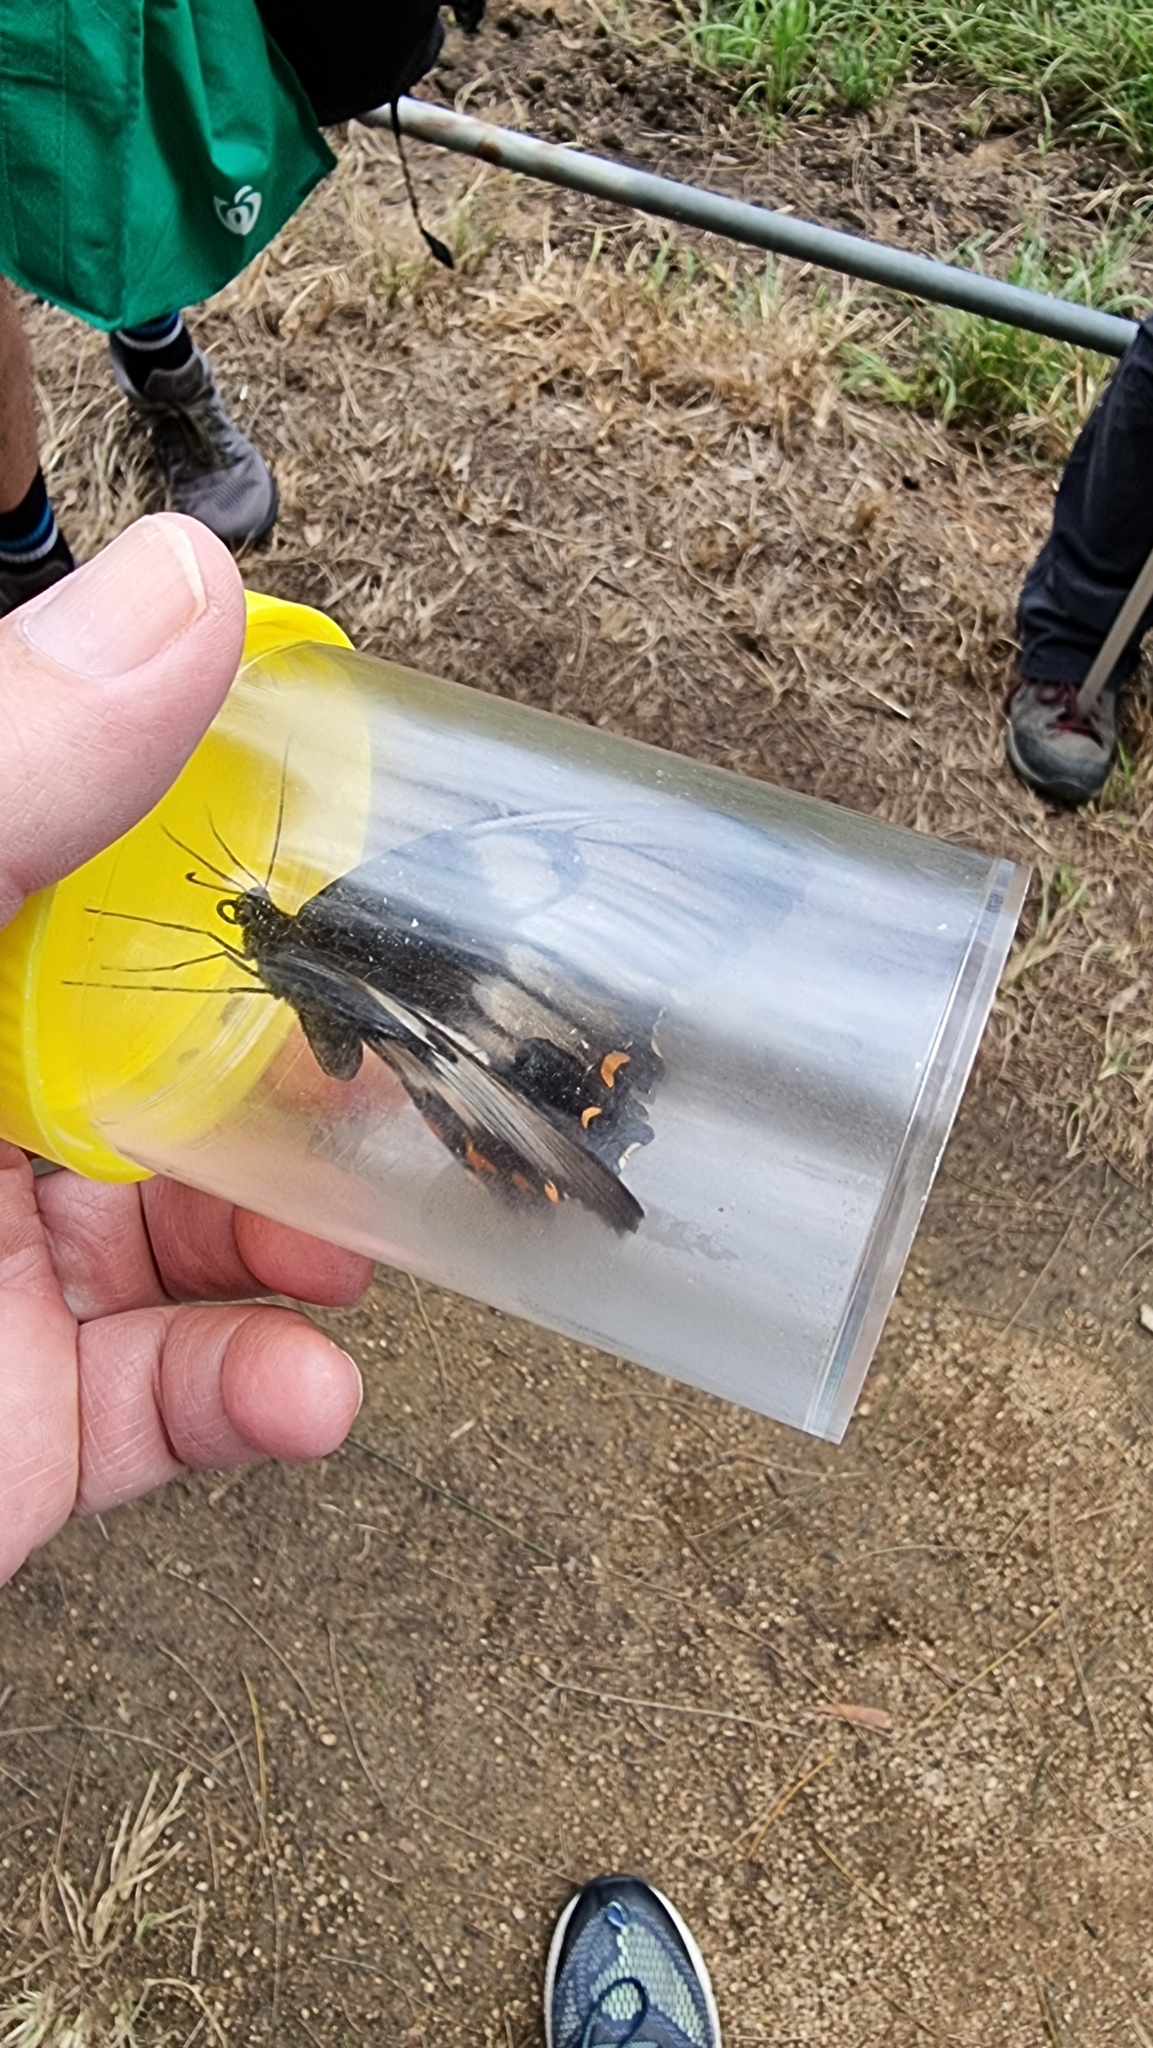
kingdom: Animalia
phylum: Arthropoda
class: Insecta
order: Lepidoptera
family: Papilionidae
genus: Papilio
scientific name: Papilio aegeus
